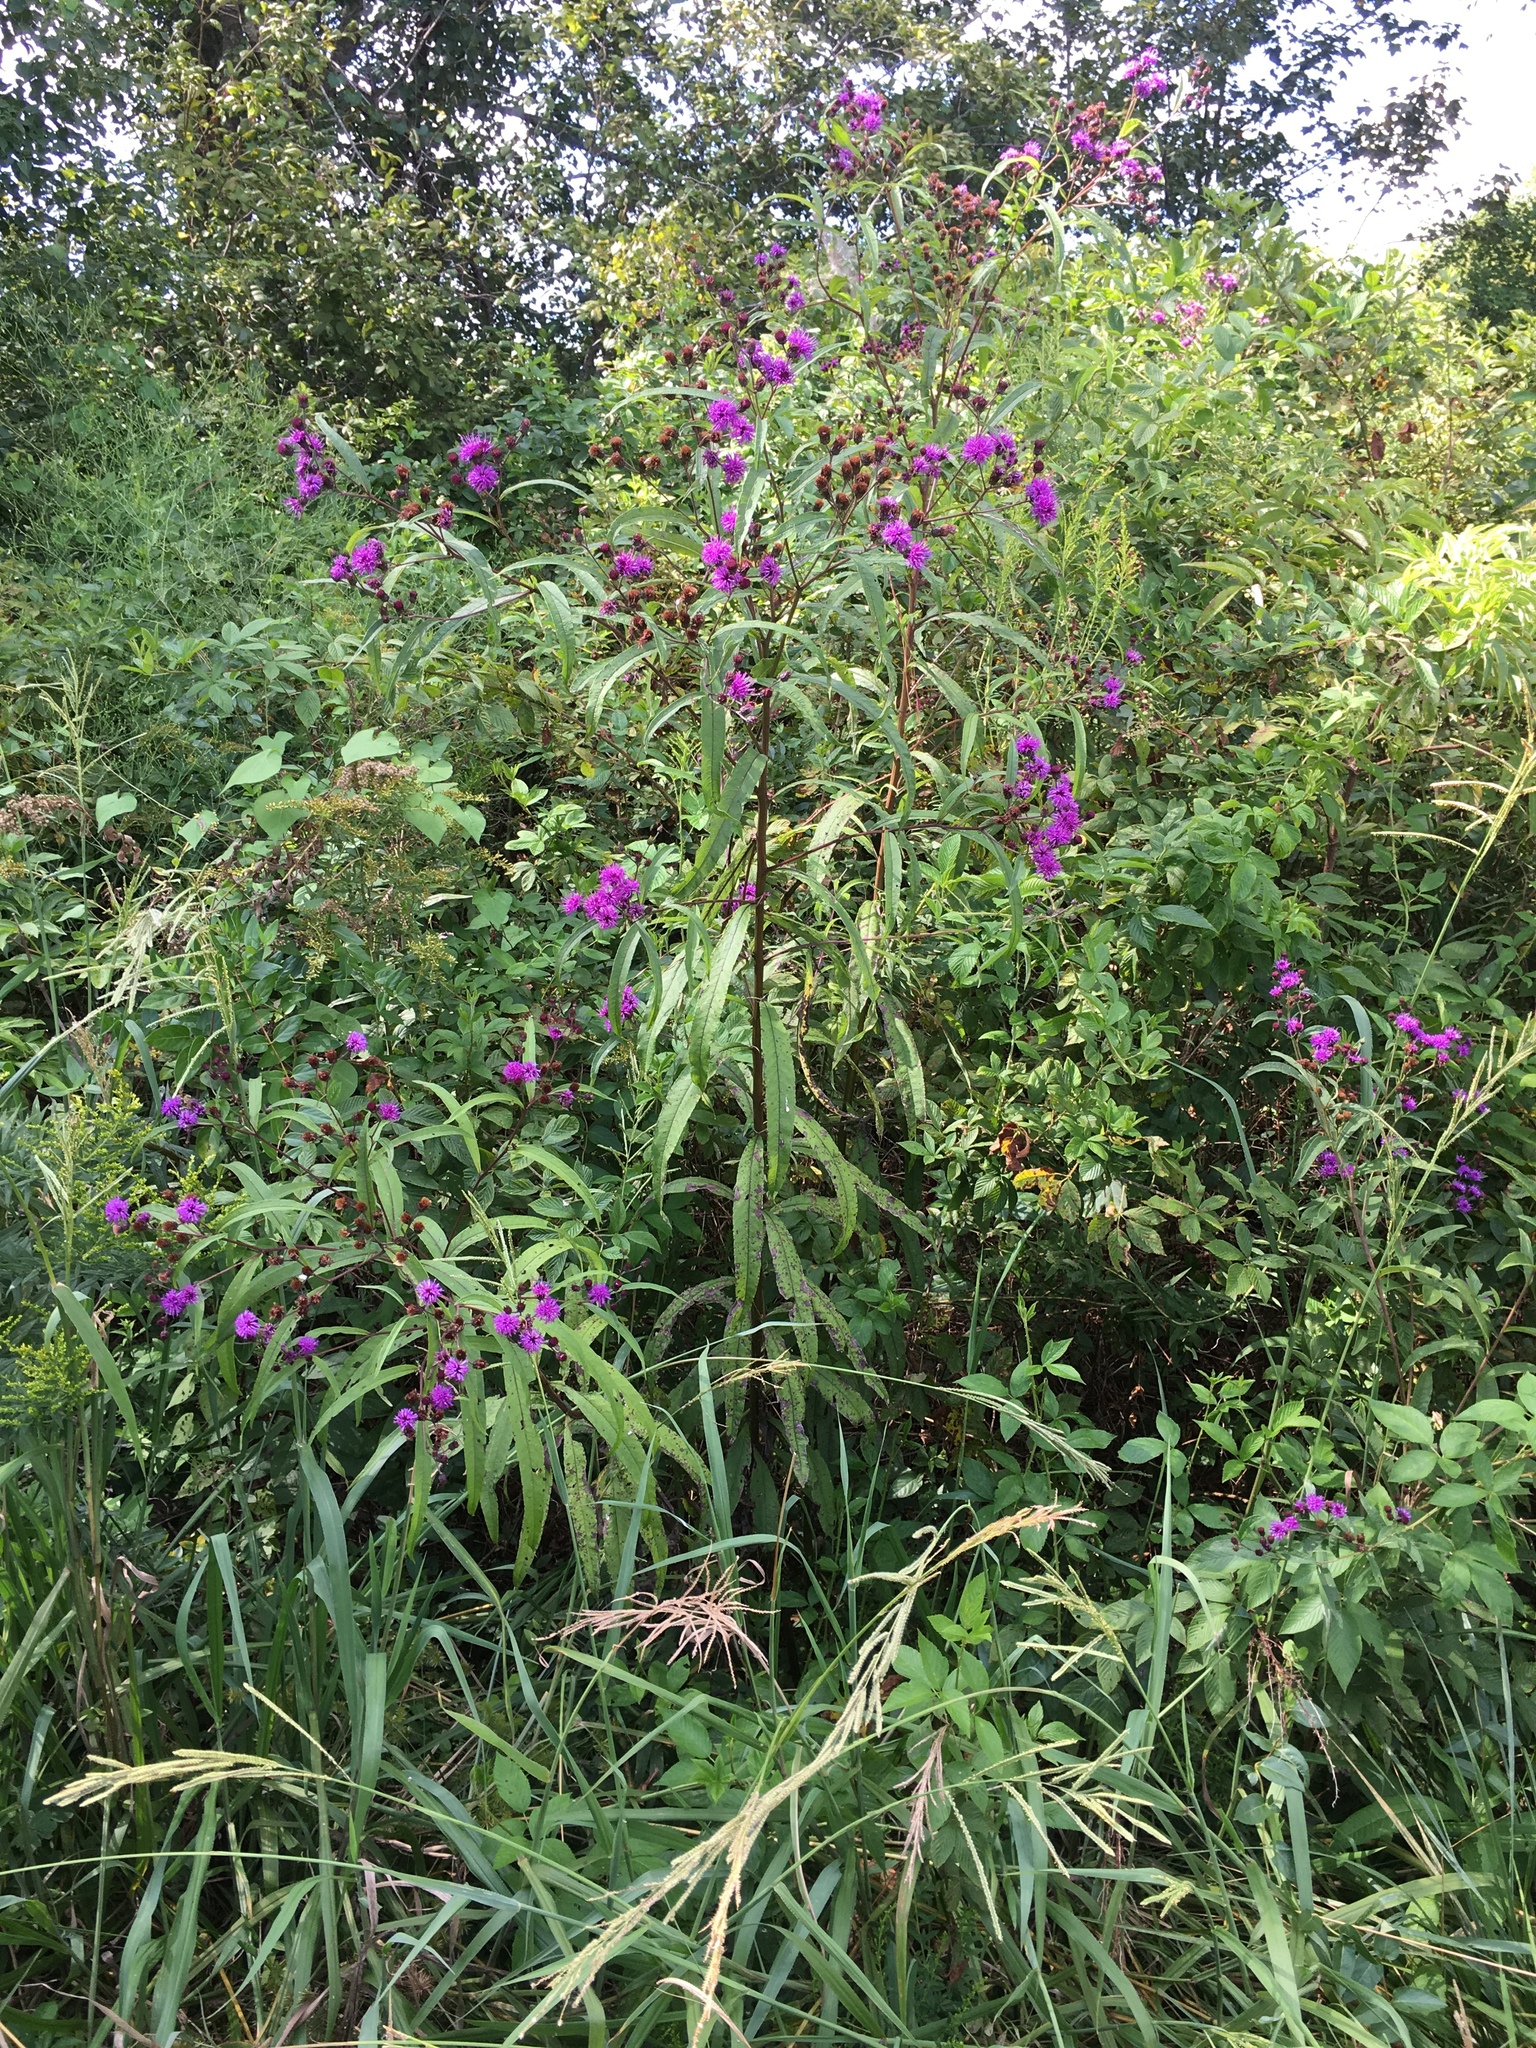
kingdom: Plantae
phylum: Tracheophyta
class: Magnoliopsida
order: Asterales
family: Asteraceae
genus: Vernonia
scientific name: Vernonia noveboracensis
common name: New york ironweed
